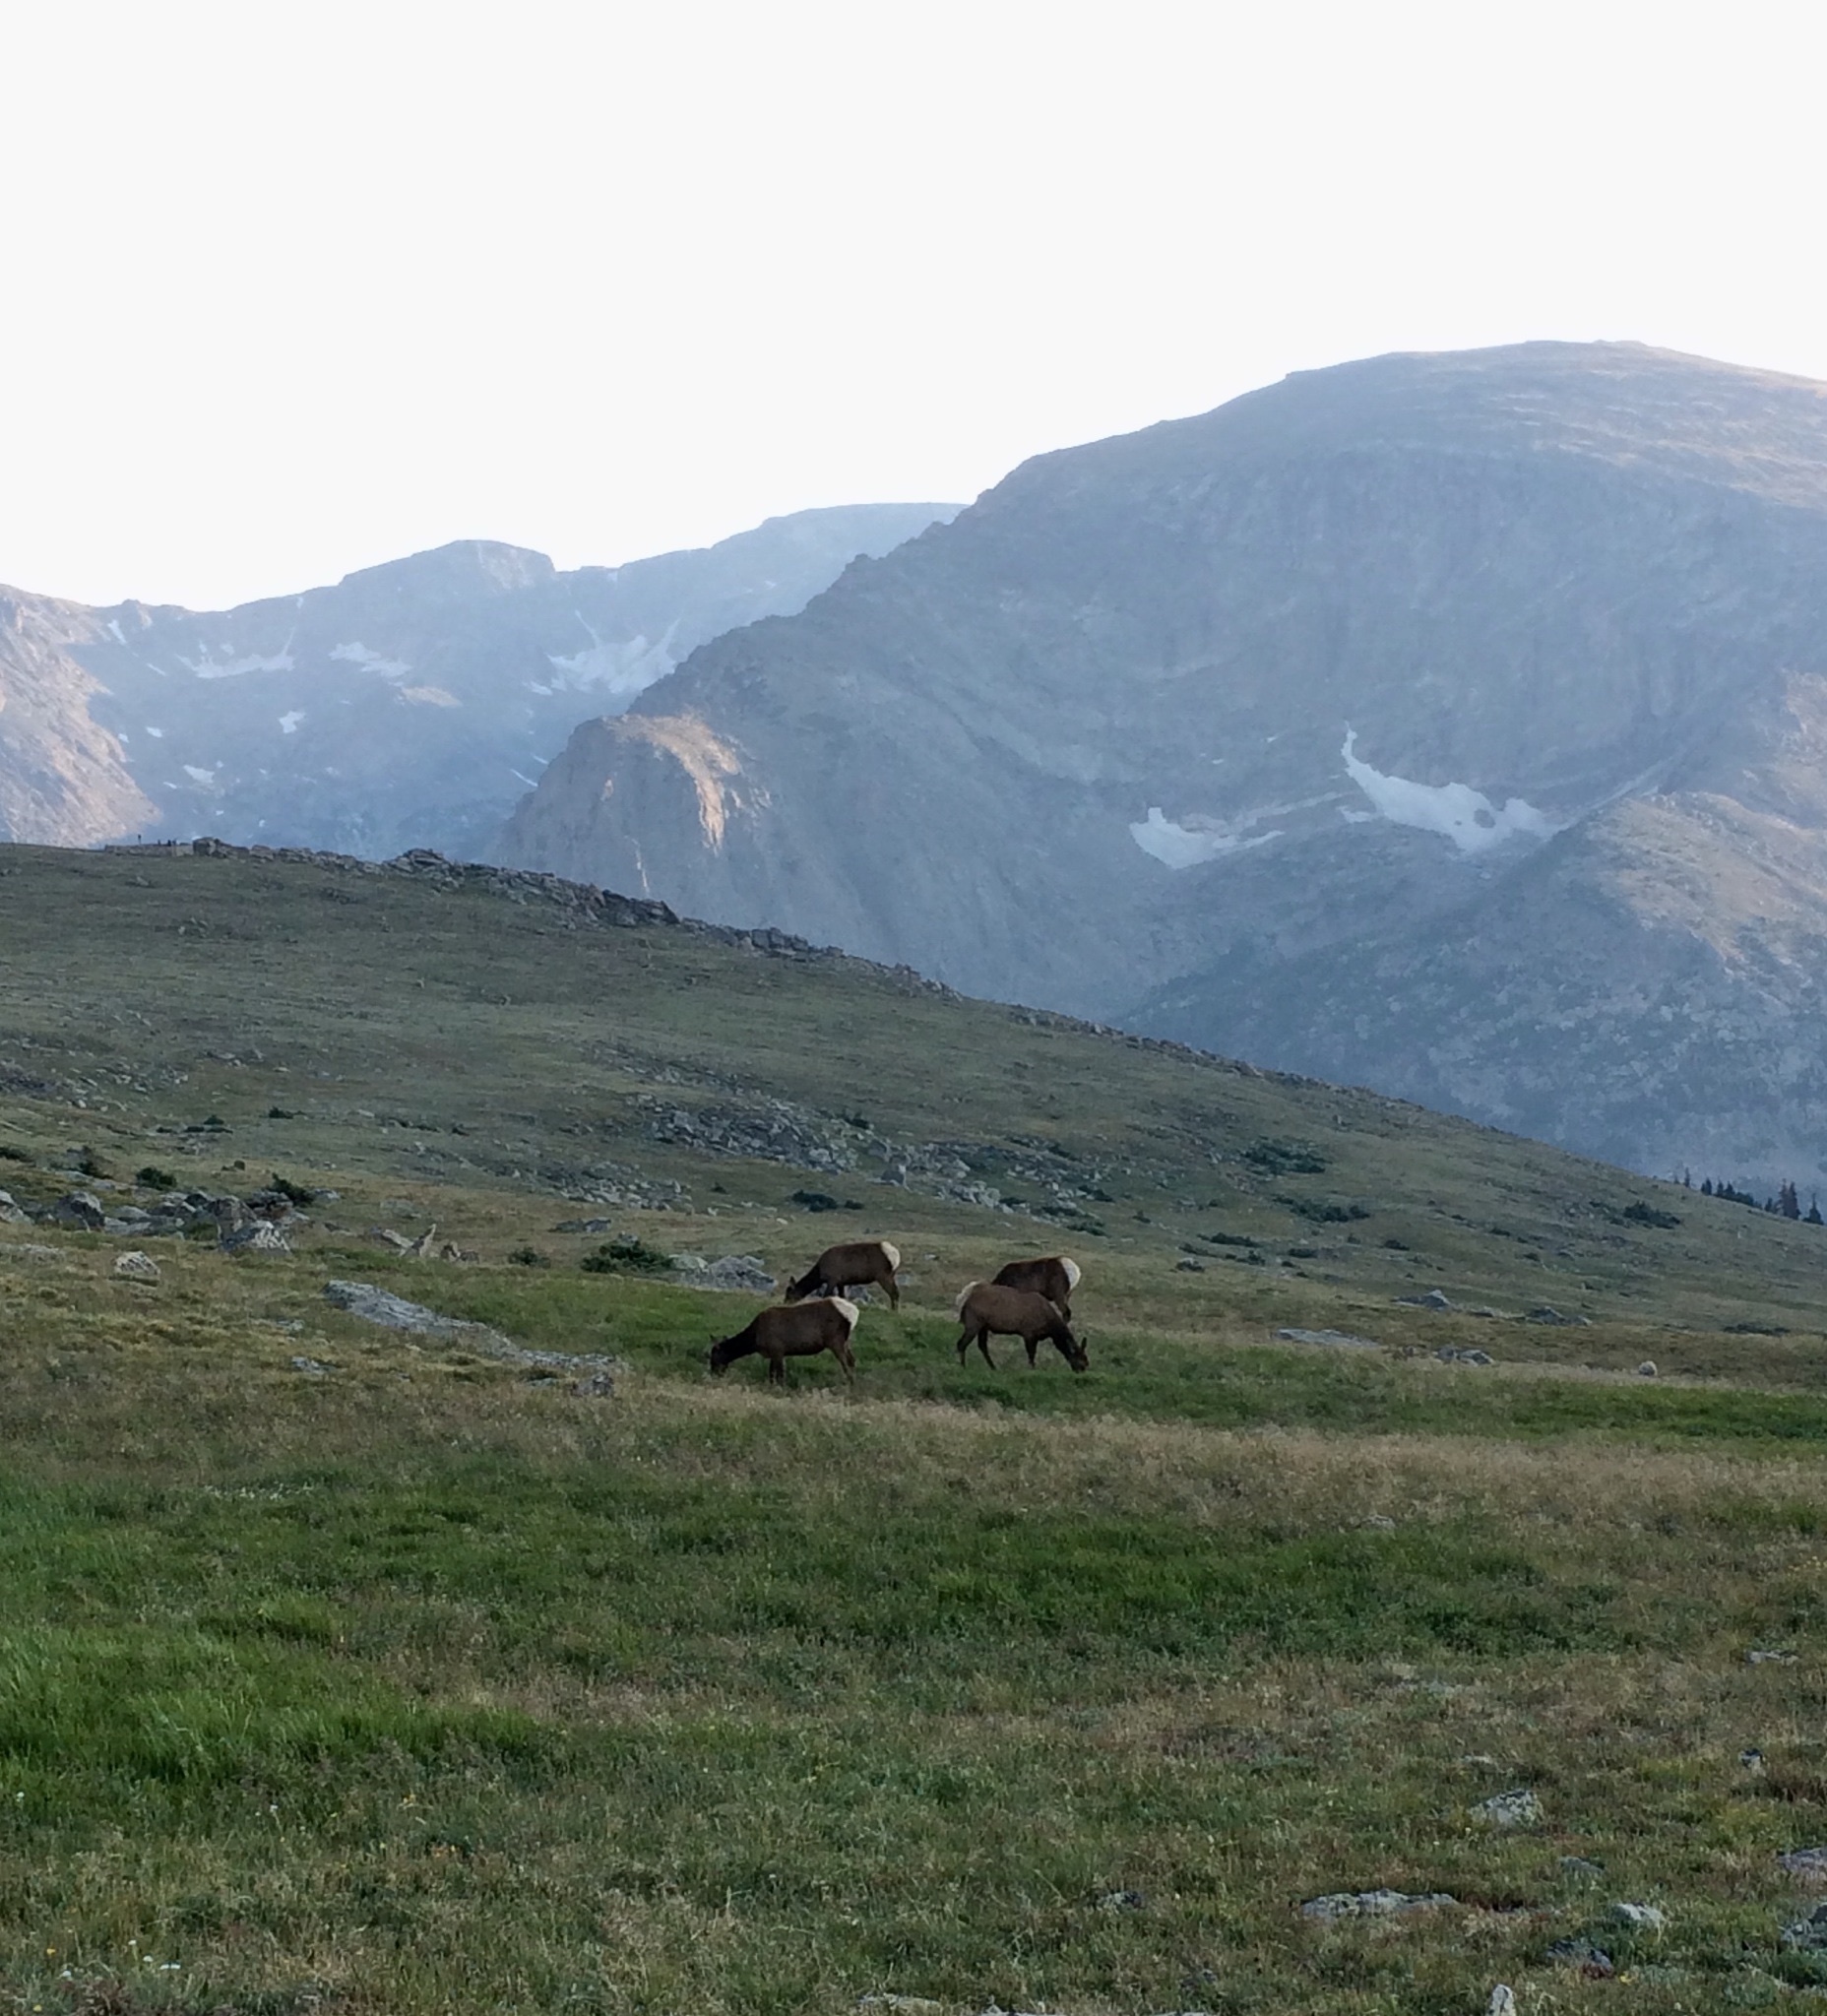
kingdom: Animalia
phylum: Chordata
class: Mammalia
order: Artiodactyla
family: Cervidae
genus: Cervus
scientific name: Cervus elaphus
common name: Red deer
